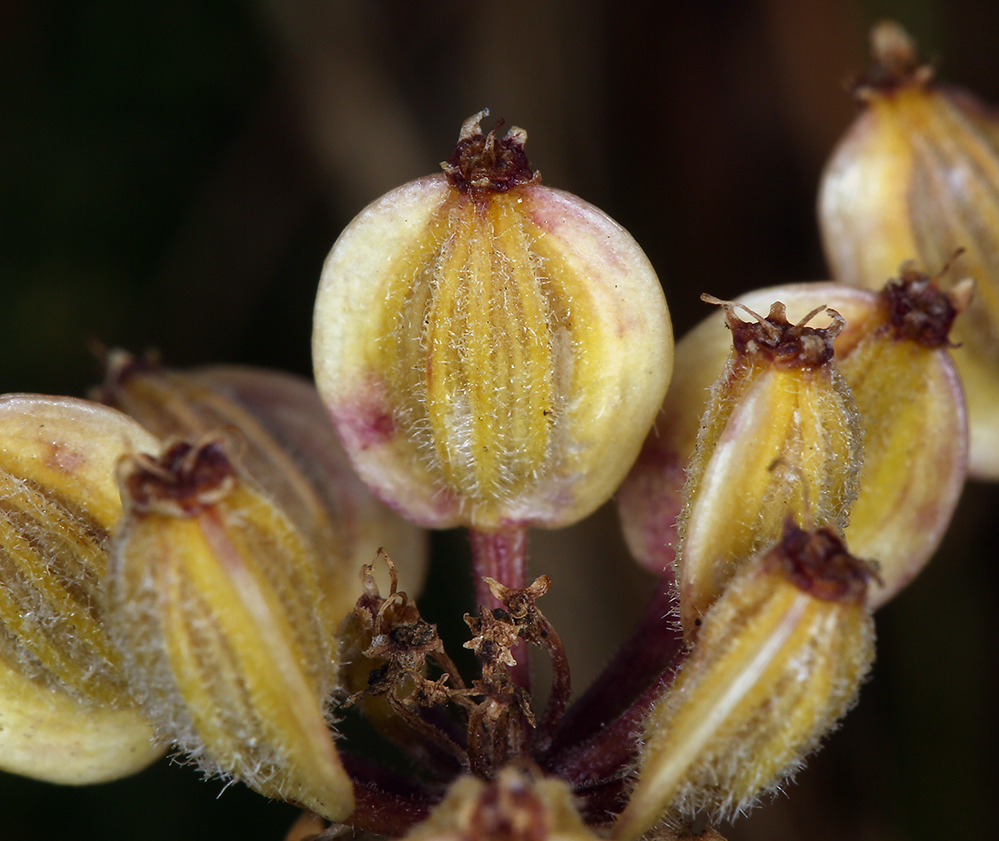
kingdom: Plantae
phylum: Tracheophyta
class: Magnoliopsida
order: Apiales
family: Apiaceae
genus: Lomatium
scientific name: Lomatium dasycarpum
